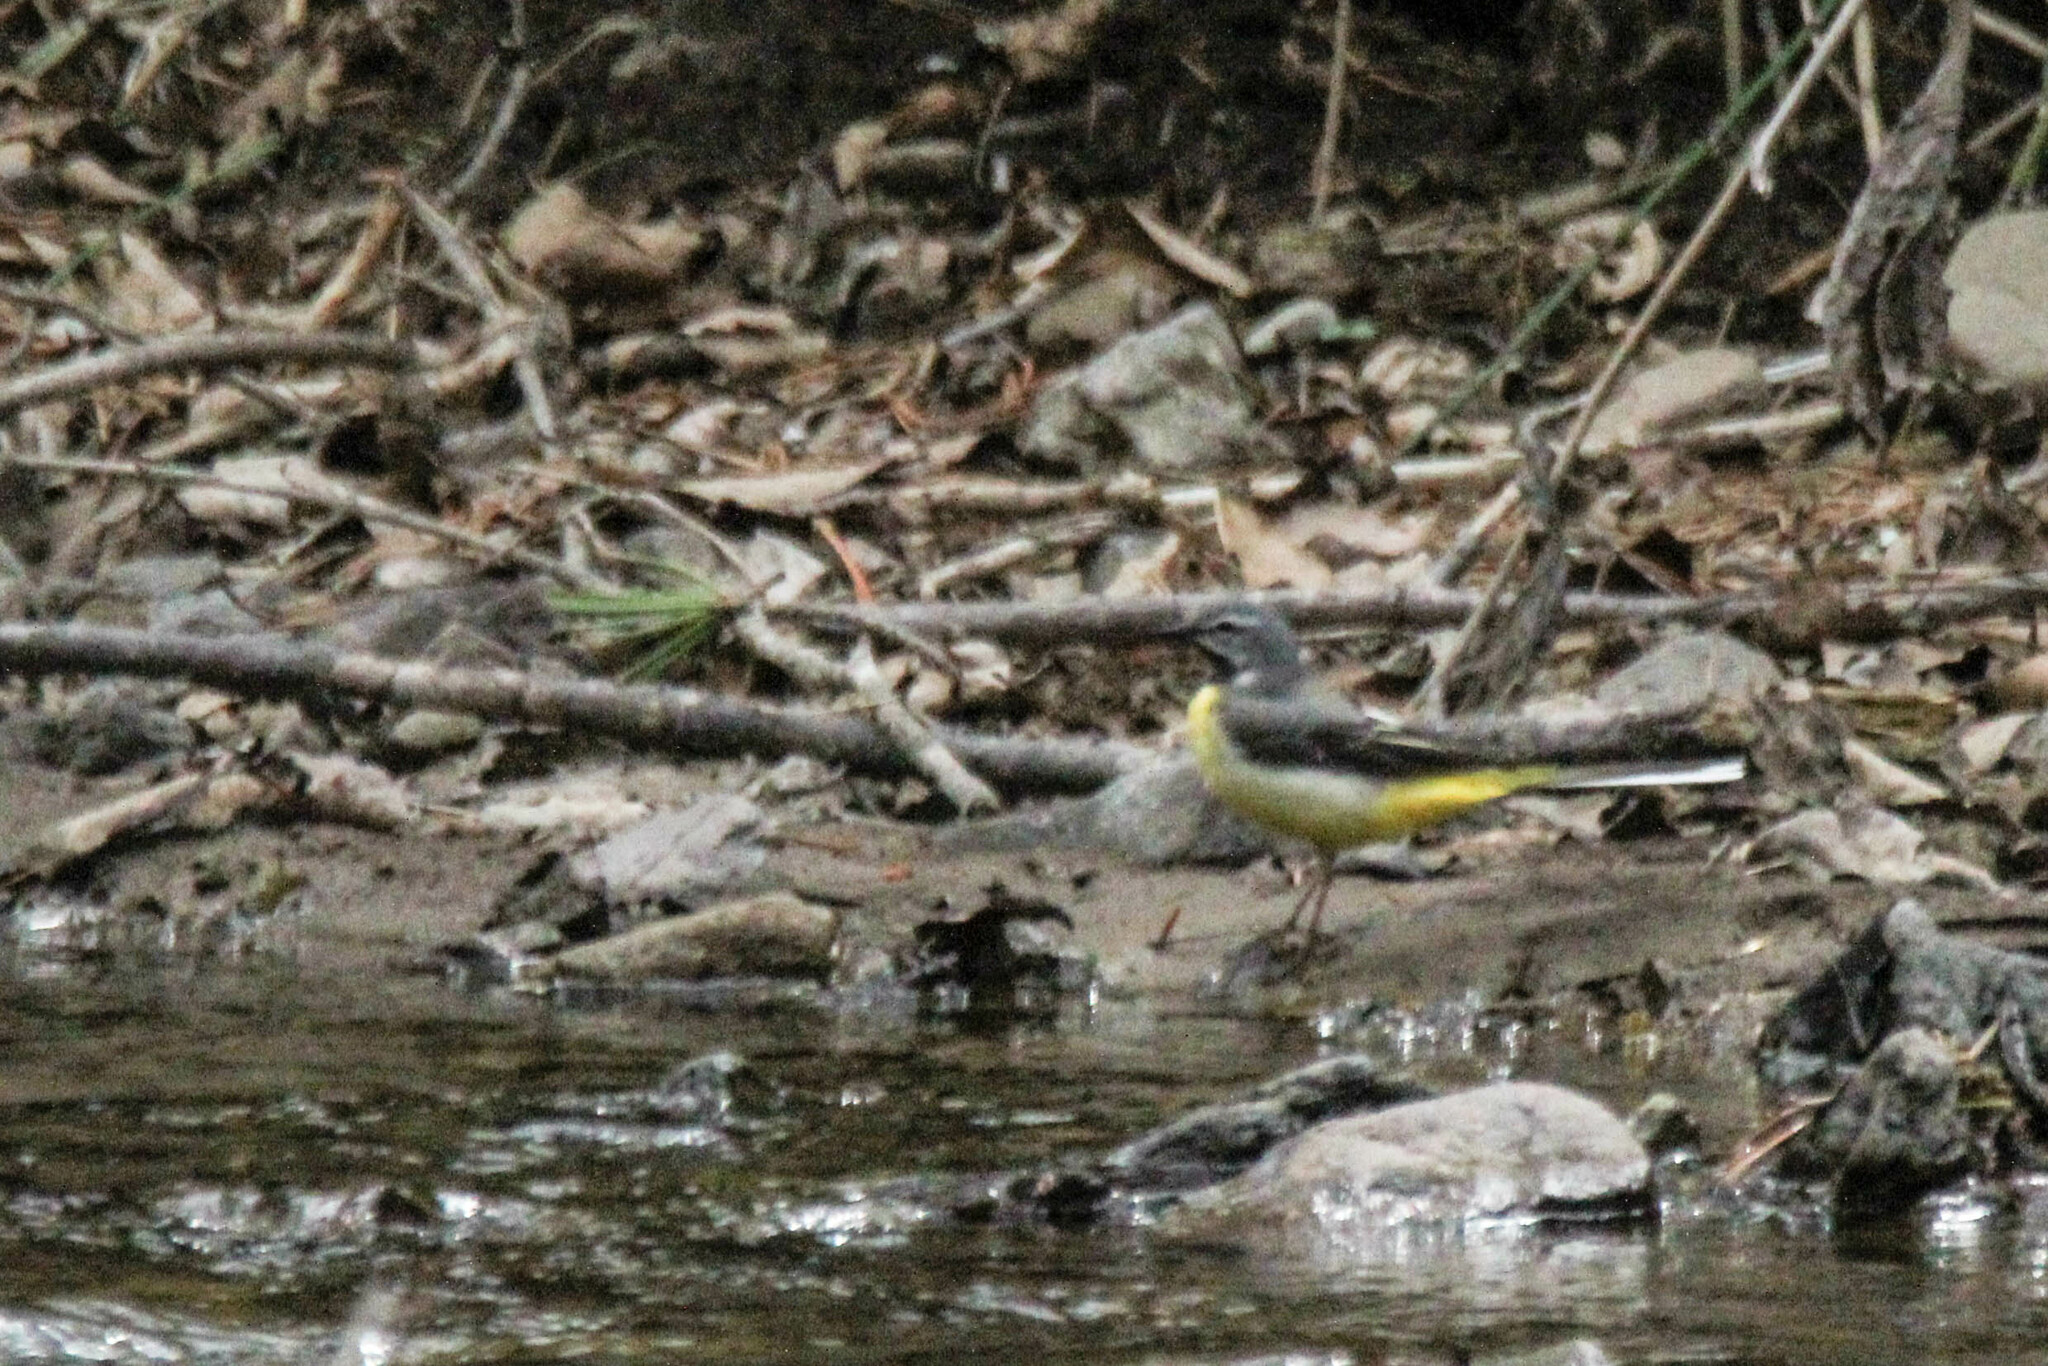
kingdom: Animalia
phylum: Chordata
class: Aves
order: Passeriformes
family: Motacillidae
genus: Motacilla
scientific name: Motacilla cinerea
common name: Grey wagtail
